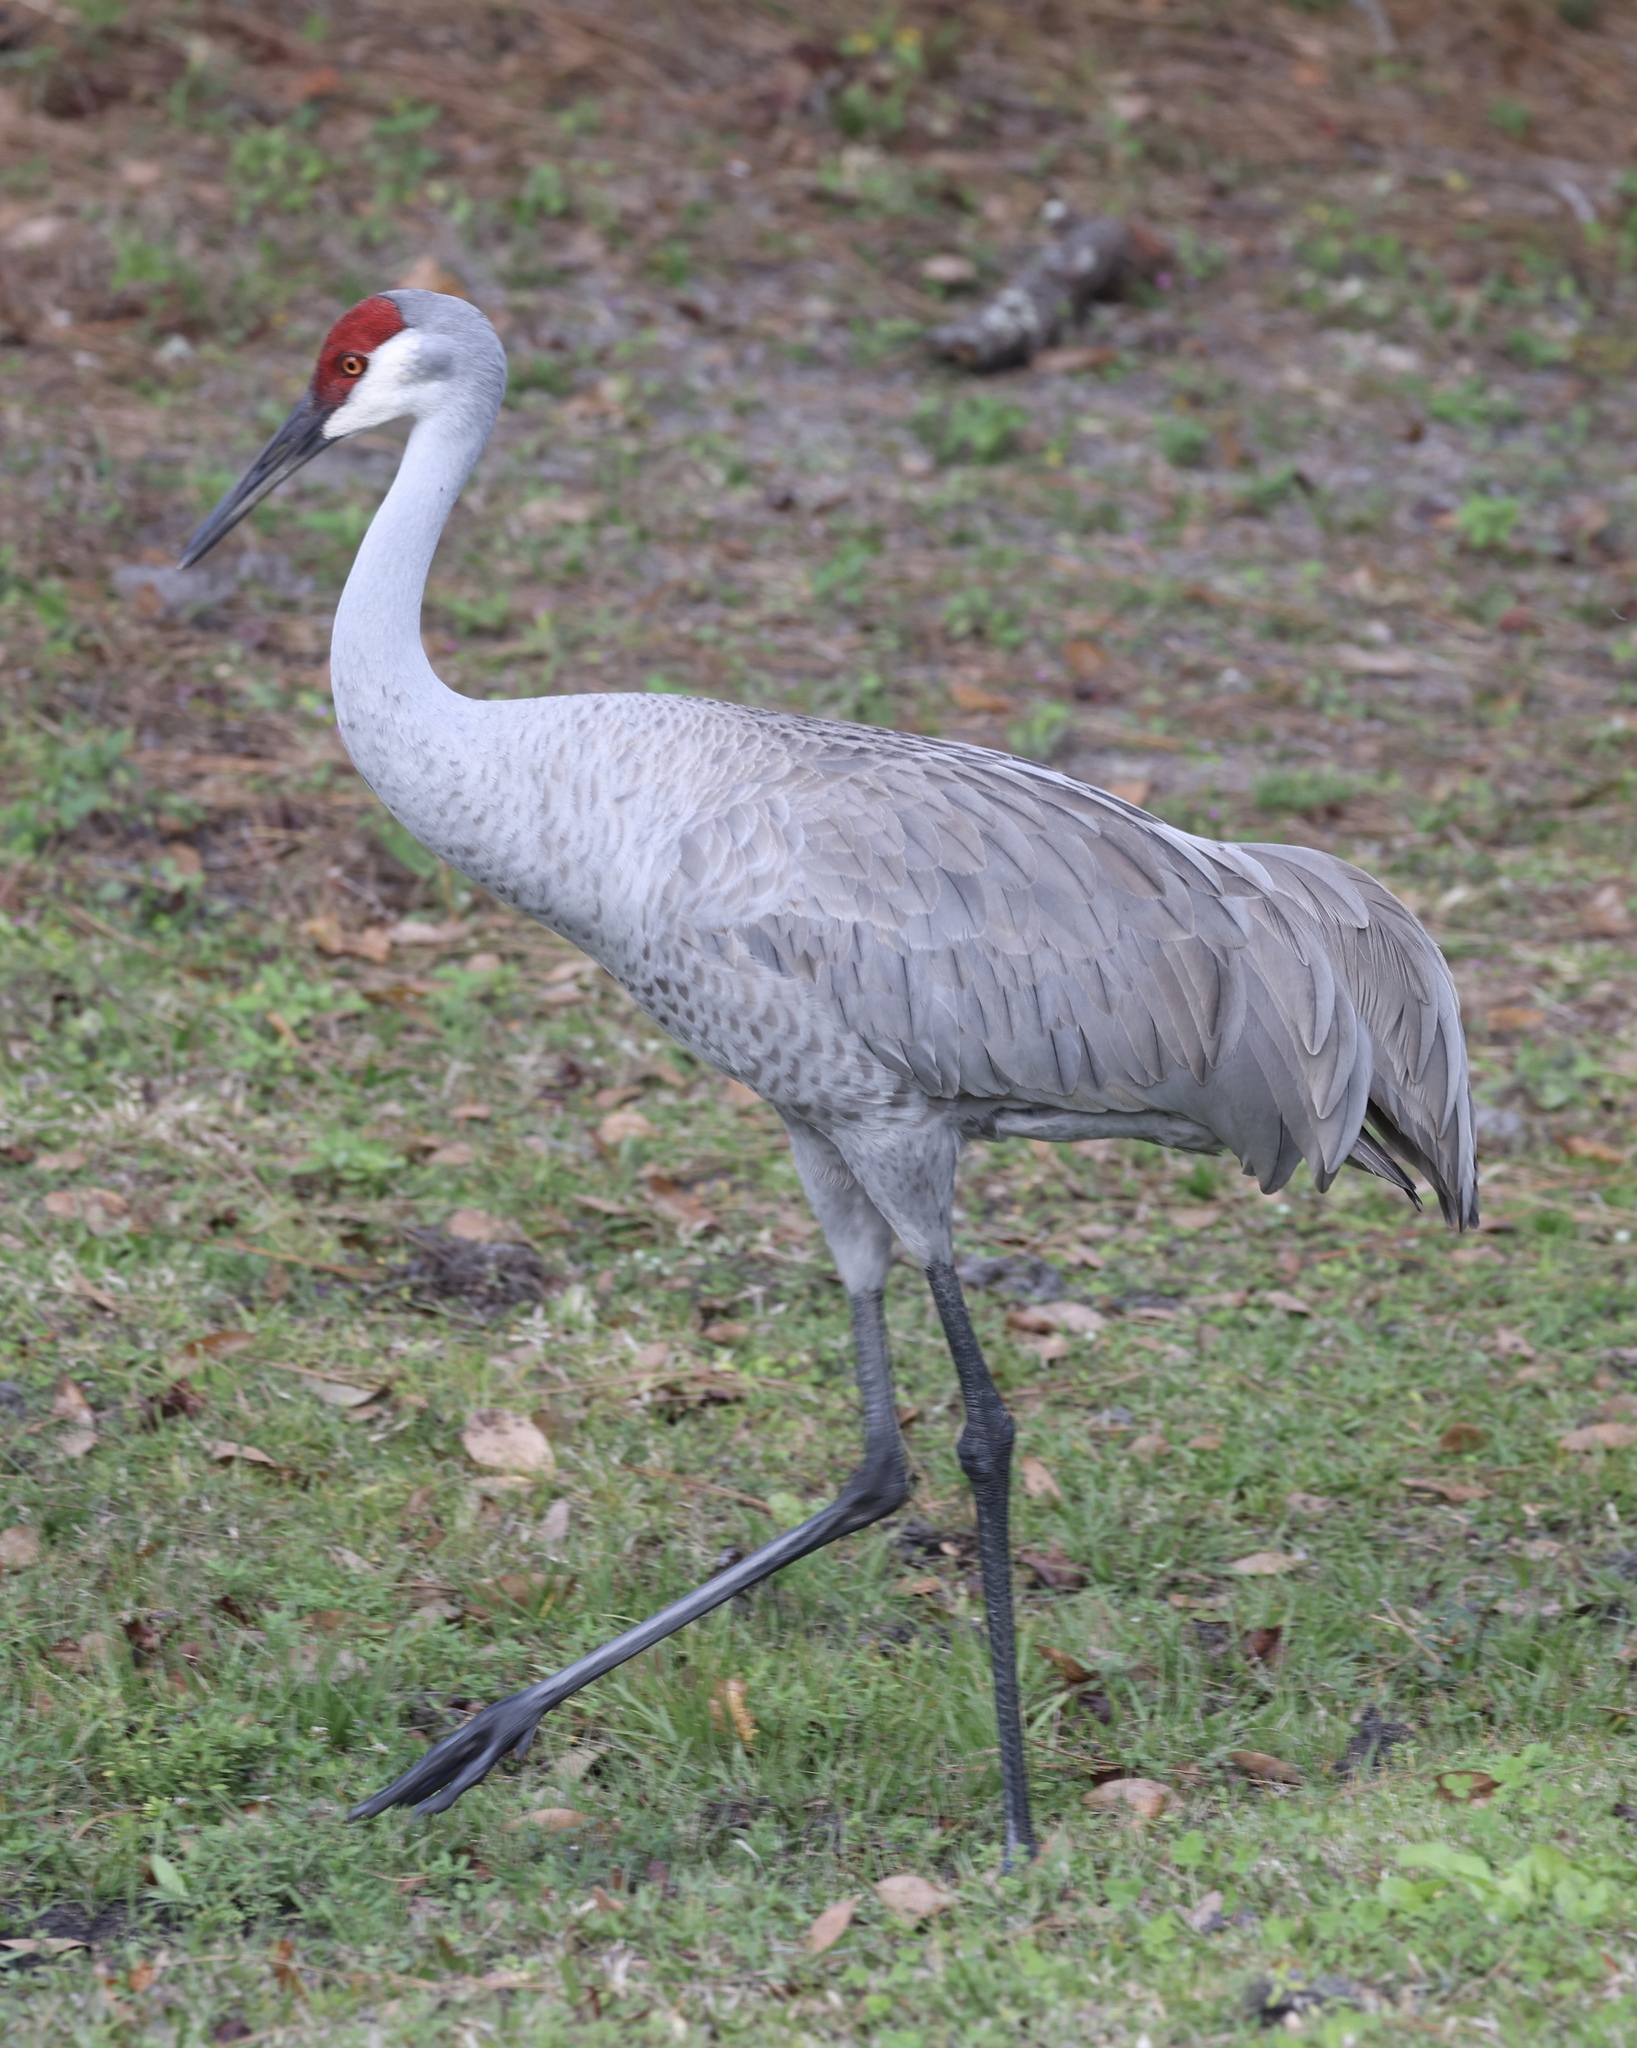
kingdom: Animalia
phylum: Chordata
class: Aves
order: Gruiformes
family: Gruidae
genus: Grus
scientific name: Grus canadensis
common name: Sandhill crane
